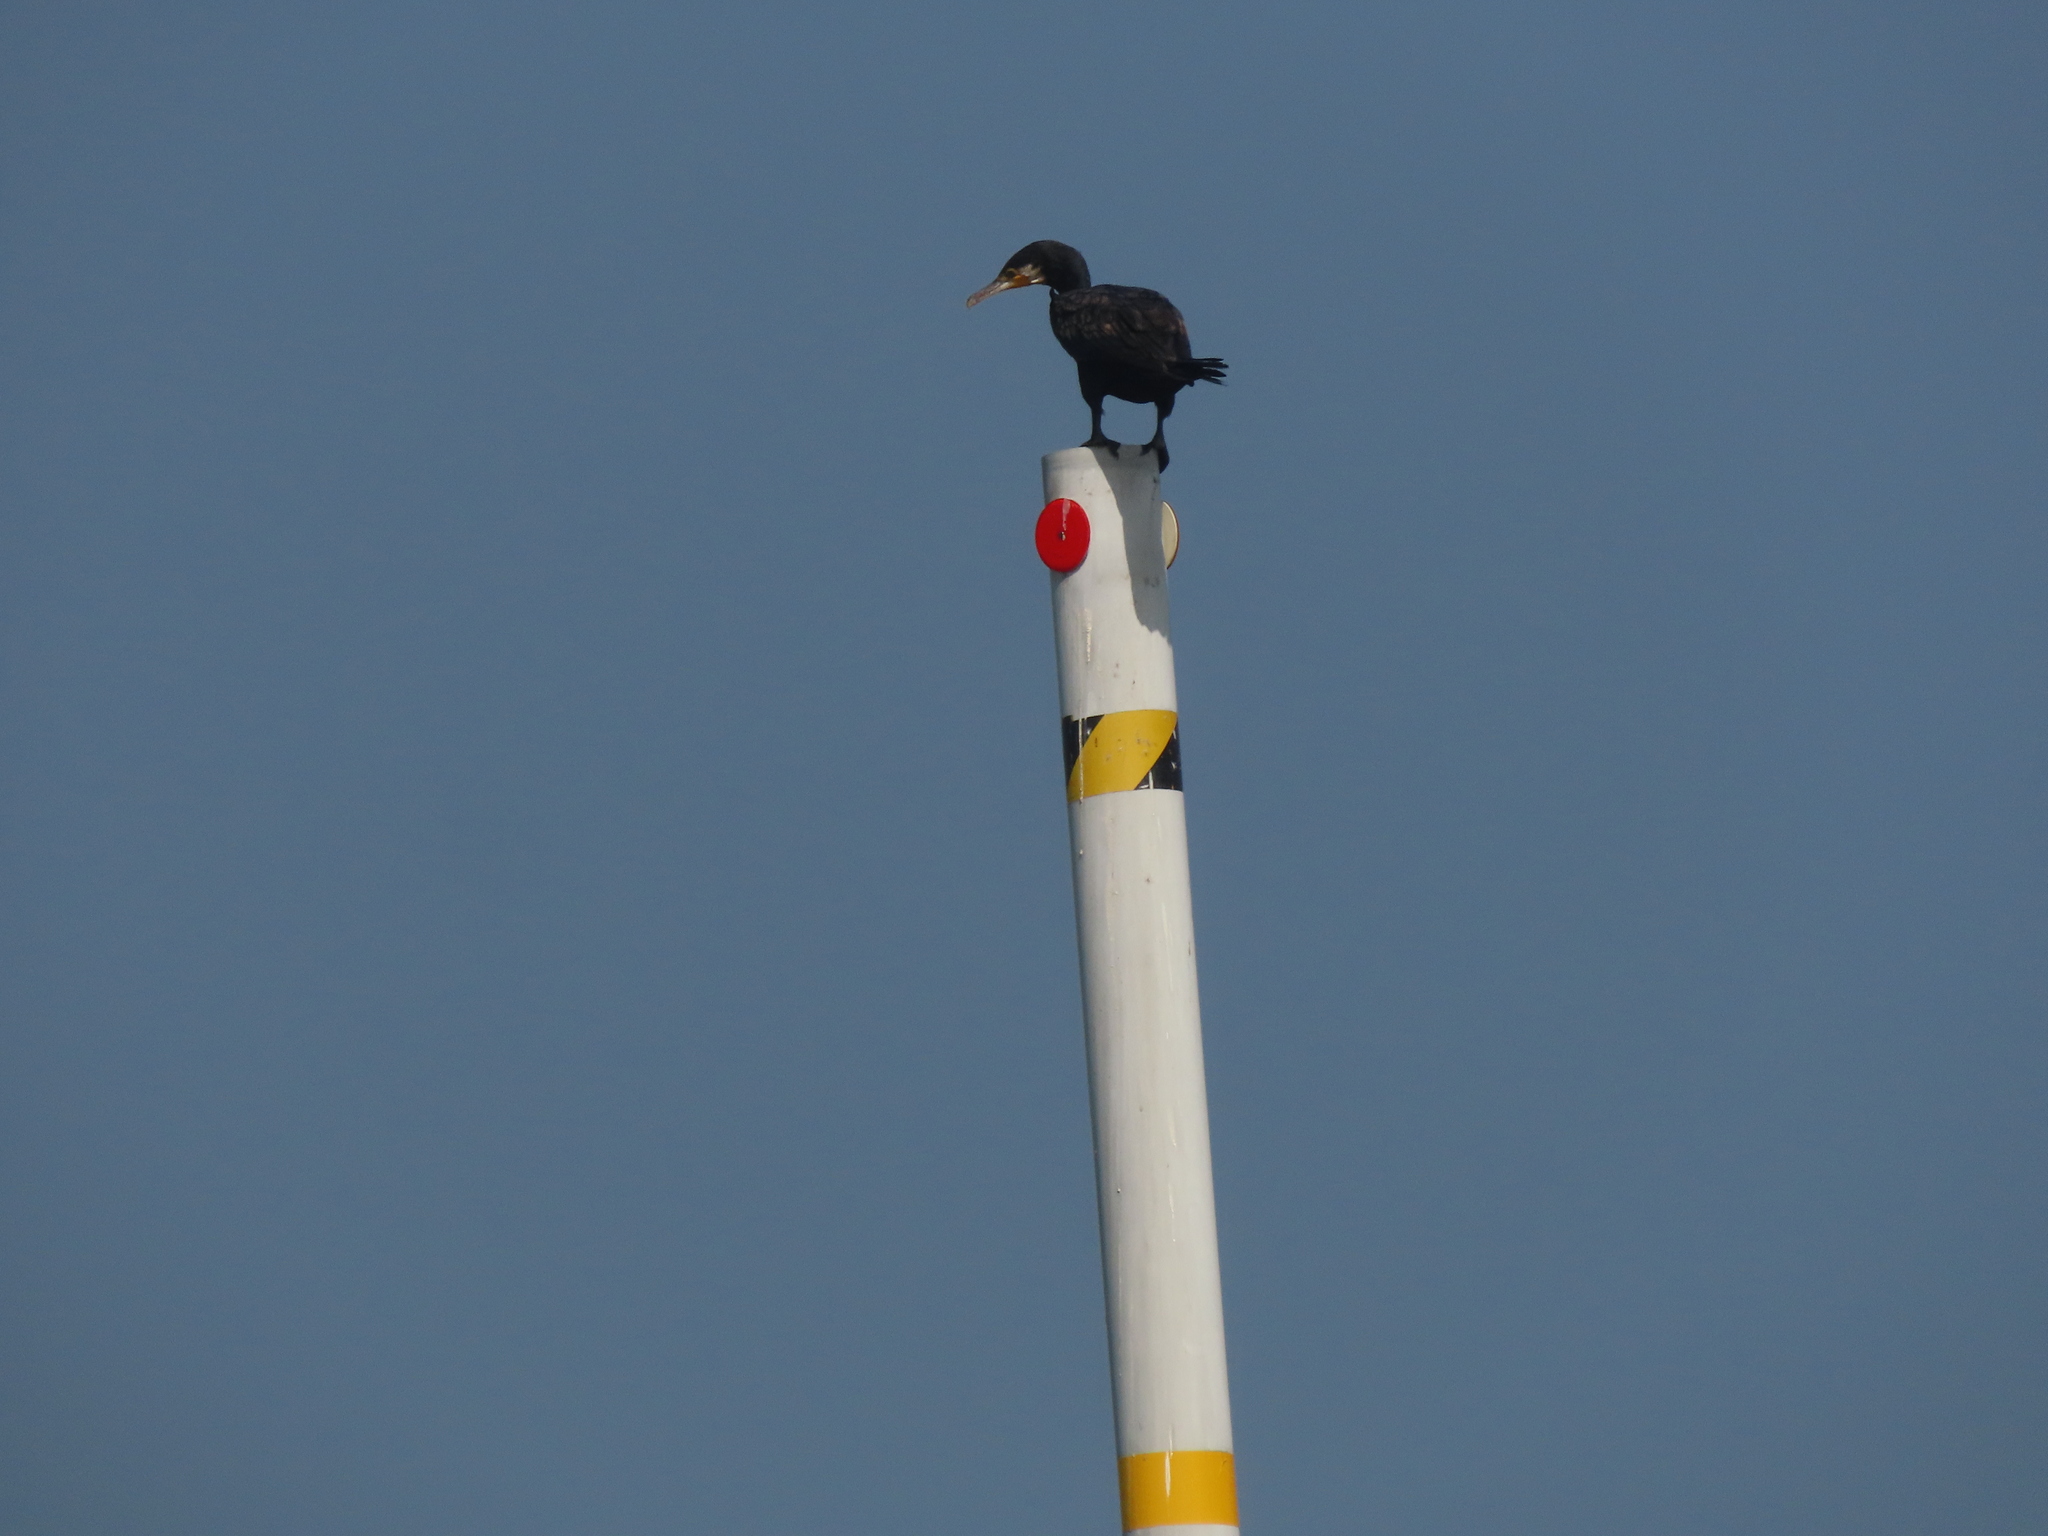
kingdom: Animalia
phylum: Chordata
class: Aves
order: Suliformes
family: Phalacrocoracidae
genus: Phalacrocorax
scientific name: Phalacrocorax carbo
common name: Great cormorant
